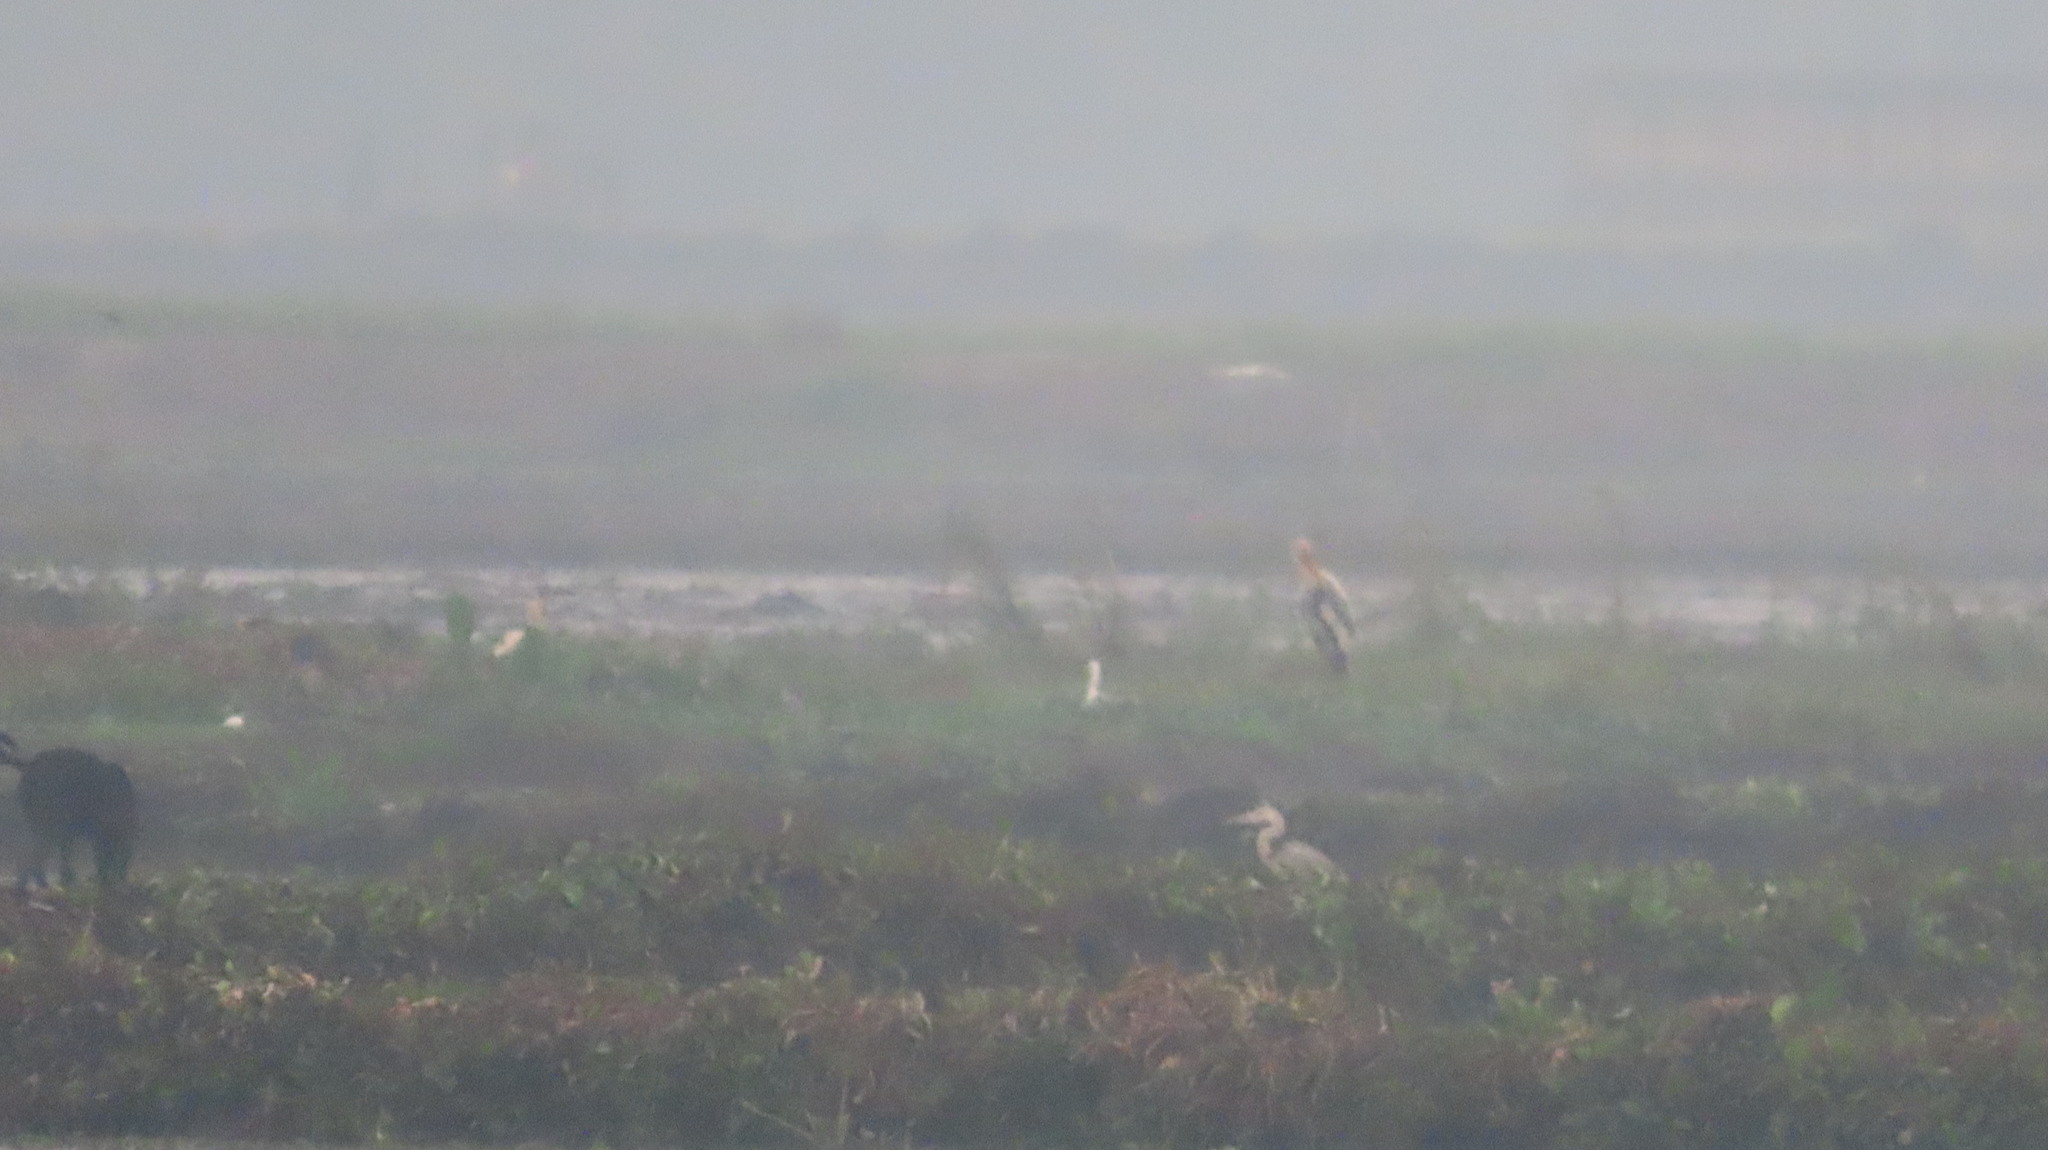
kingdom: Animalia
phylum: Chordata
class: Aves
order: Ciconiiformes
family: Ciconiidae
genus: Mycteria
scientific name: Mycteria leucocephala
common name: Painted stork
